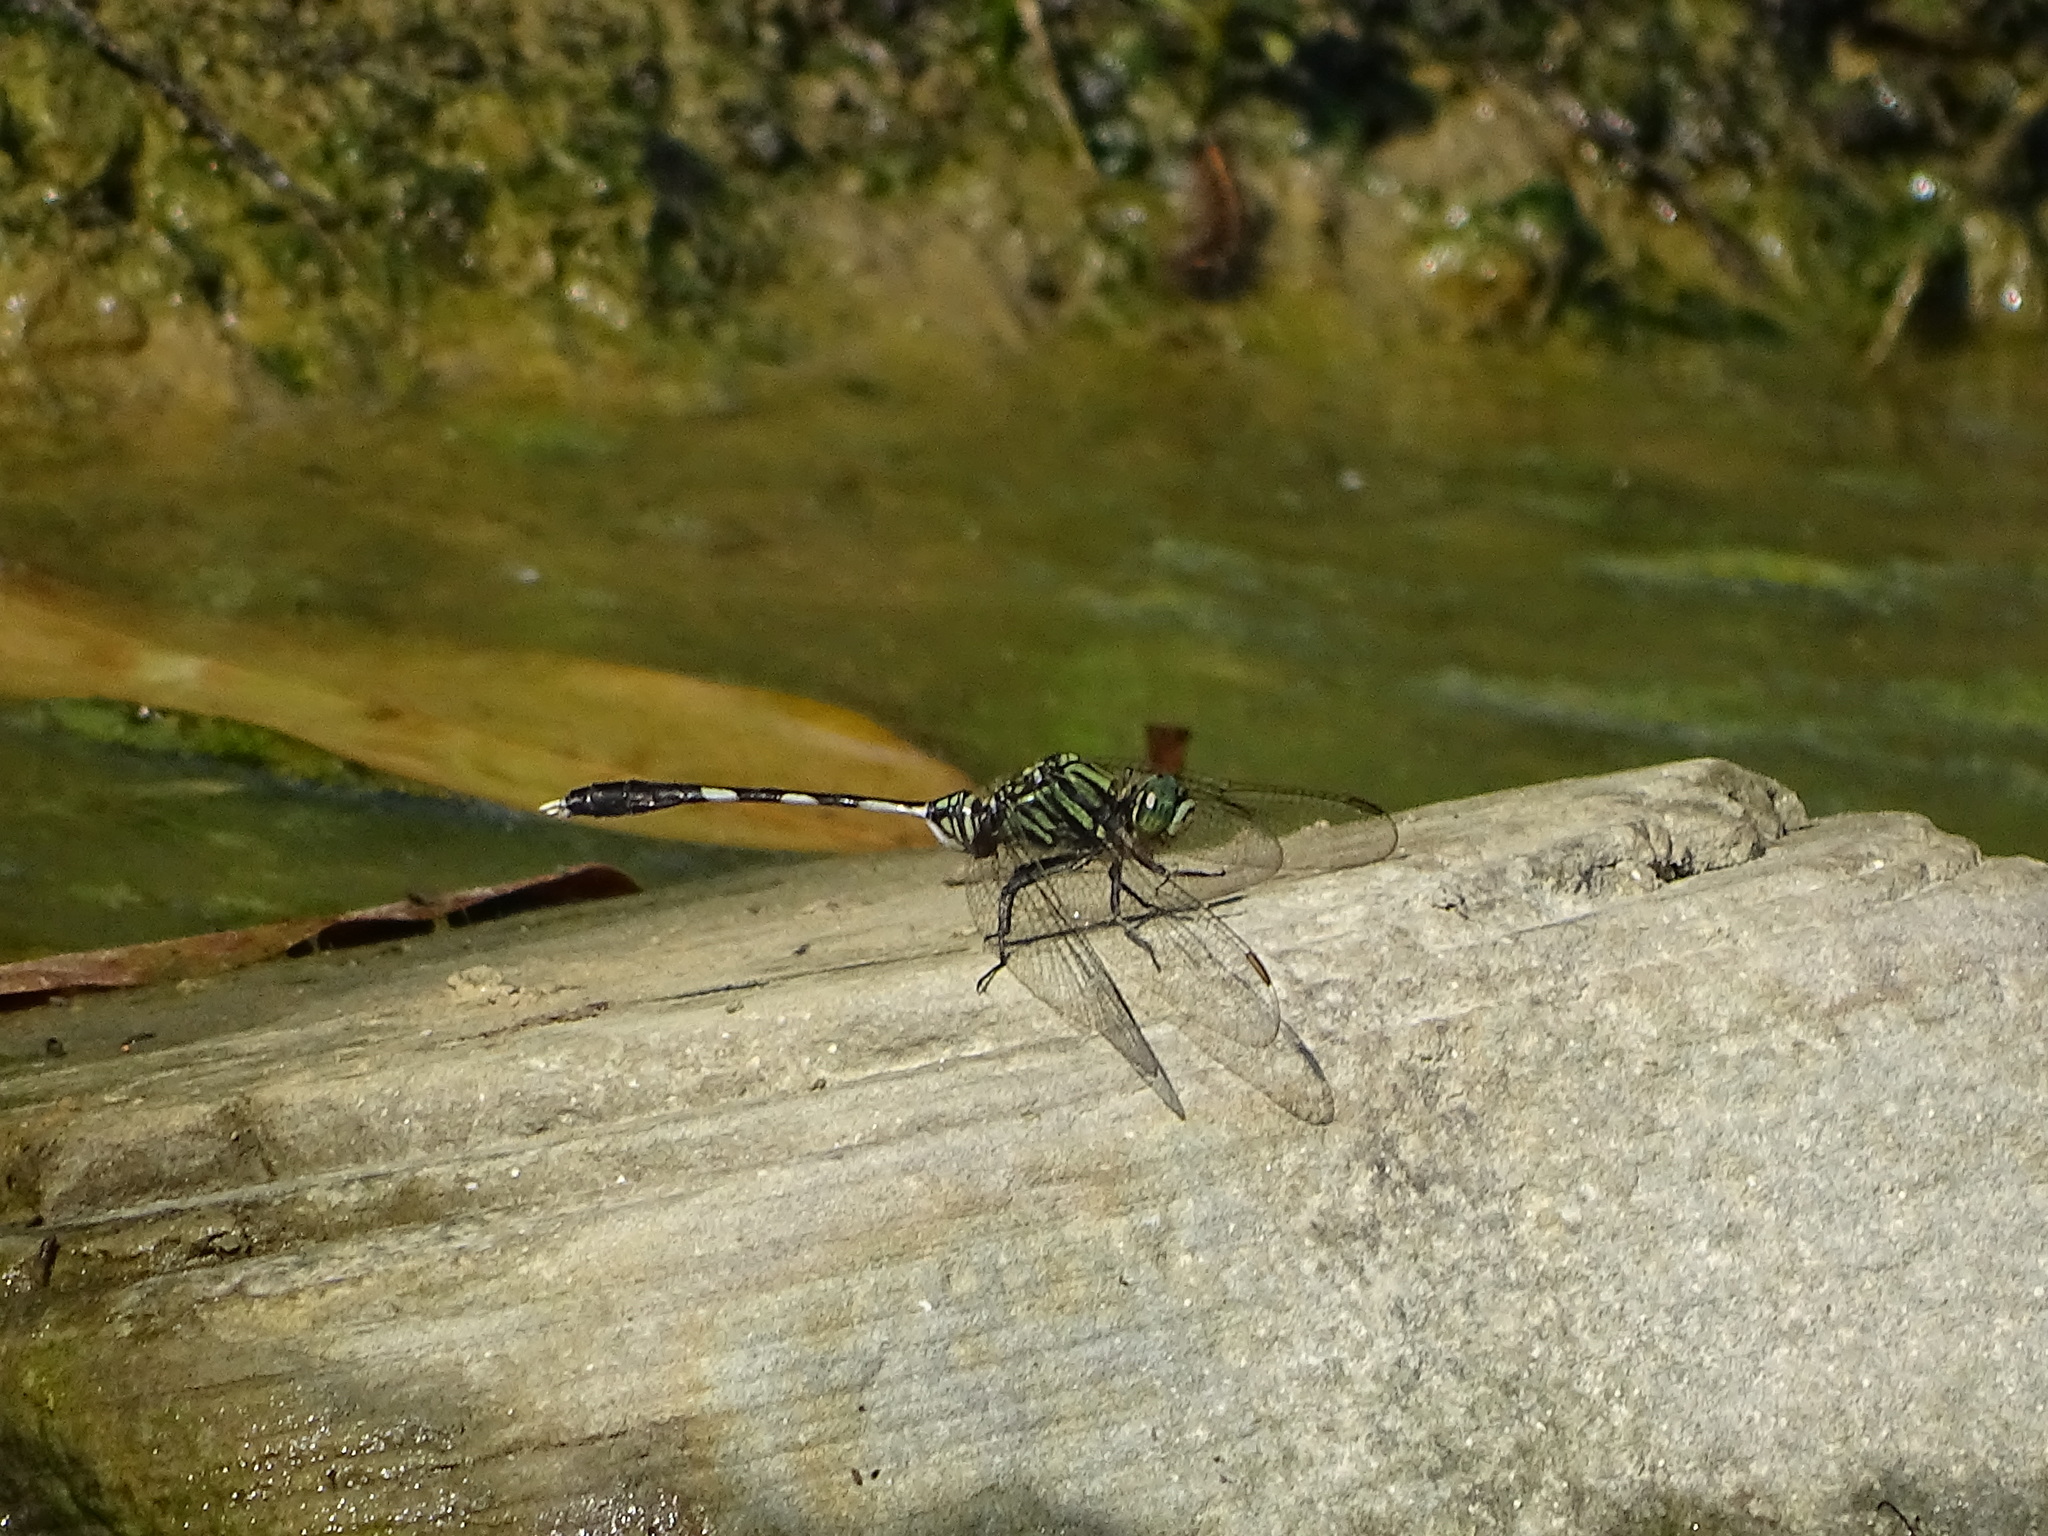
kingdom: Animalia
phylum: Arthropoda
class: Insecta
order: Odonata
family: Libellulidae
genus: Orthetrum
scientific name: Orthetrum sabina
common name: Slender skimmer
